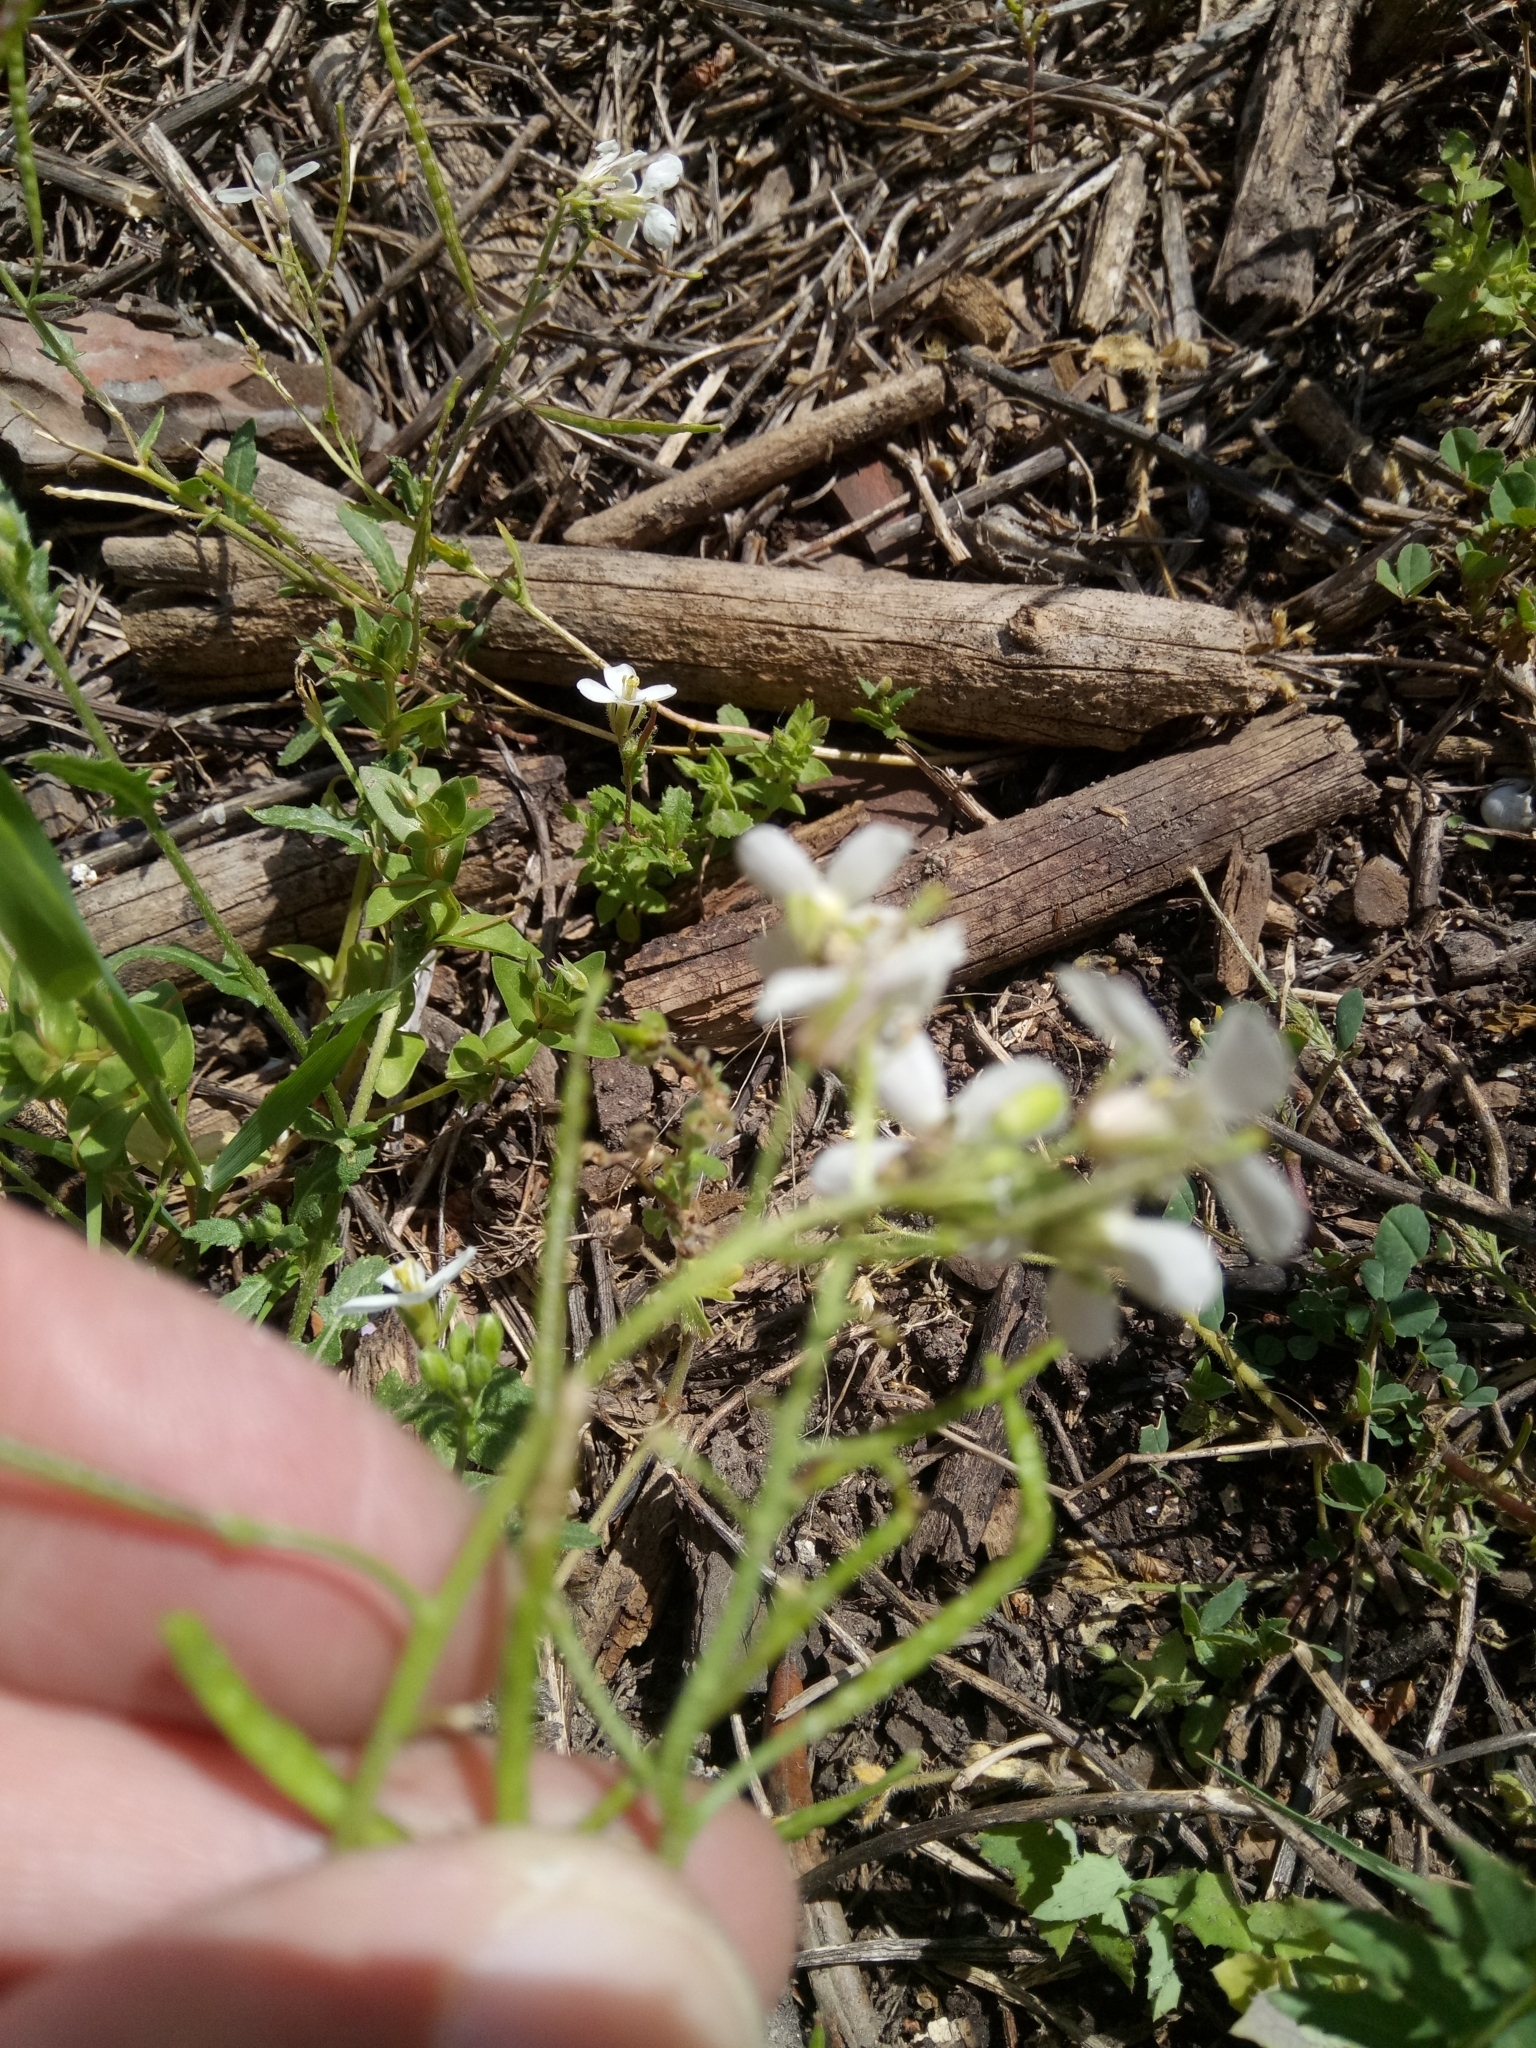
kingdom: Plantae
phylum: Tracheophyta
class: Magnoliopsida
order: Brassicales
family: Brassicaceae
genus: Diplotaxis
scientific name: Diplotaxis erucoides
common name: White rocket
